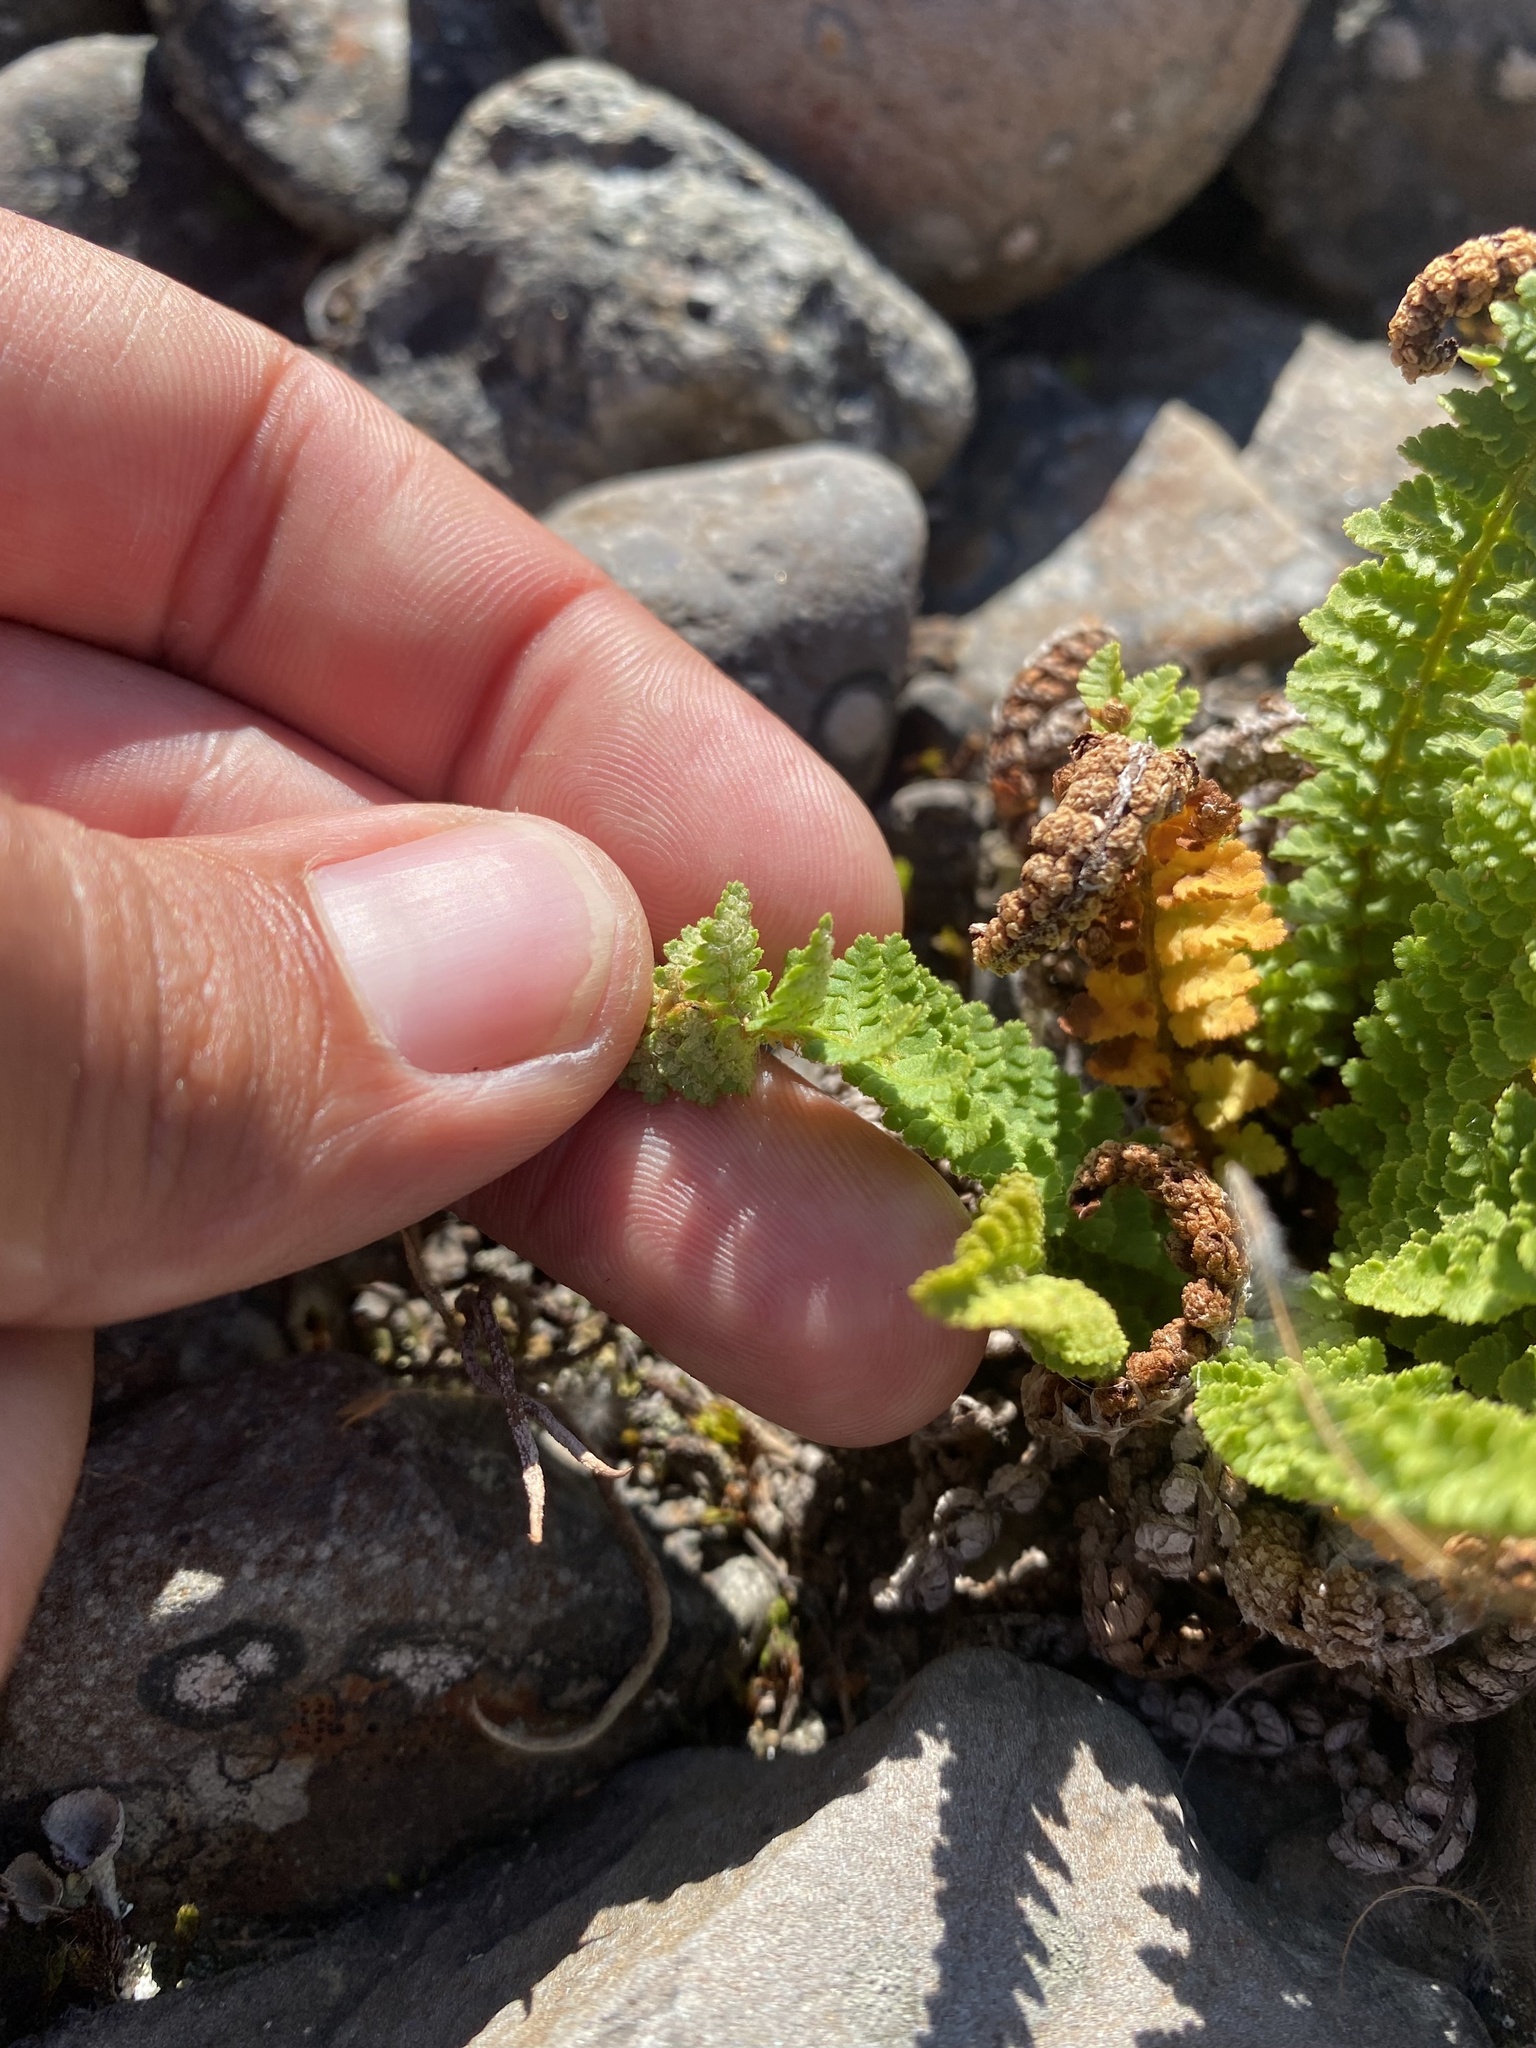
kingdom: Plantae
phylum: Tracheophyta
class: Polypodiopsida
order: Polypodiales
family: Dryopteridaceae
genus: Dryopteris
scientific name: Dryopteris fragrans
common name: Fragrant wood fern
